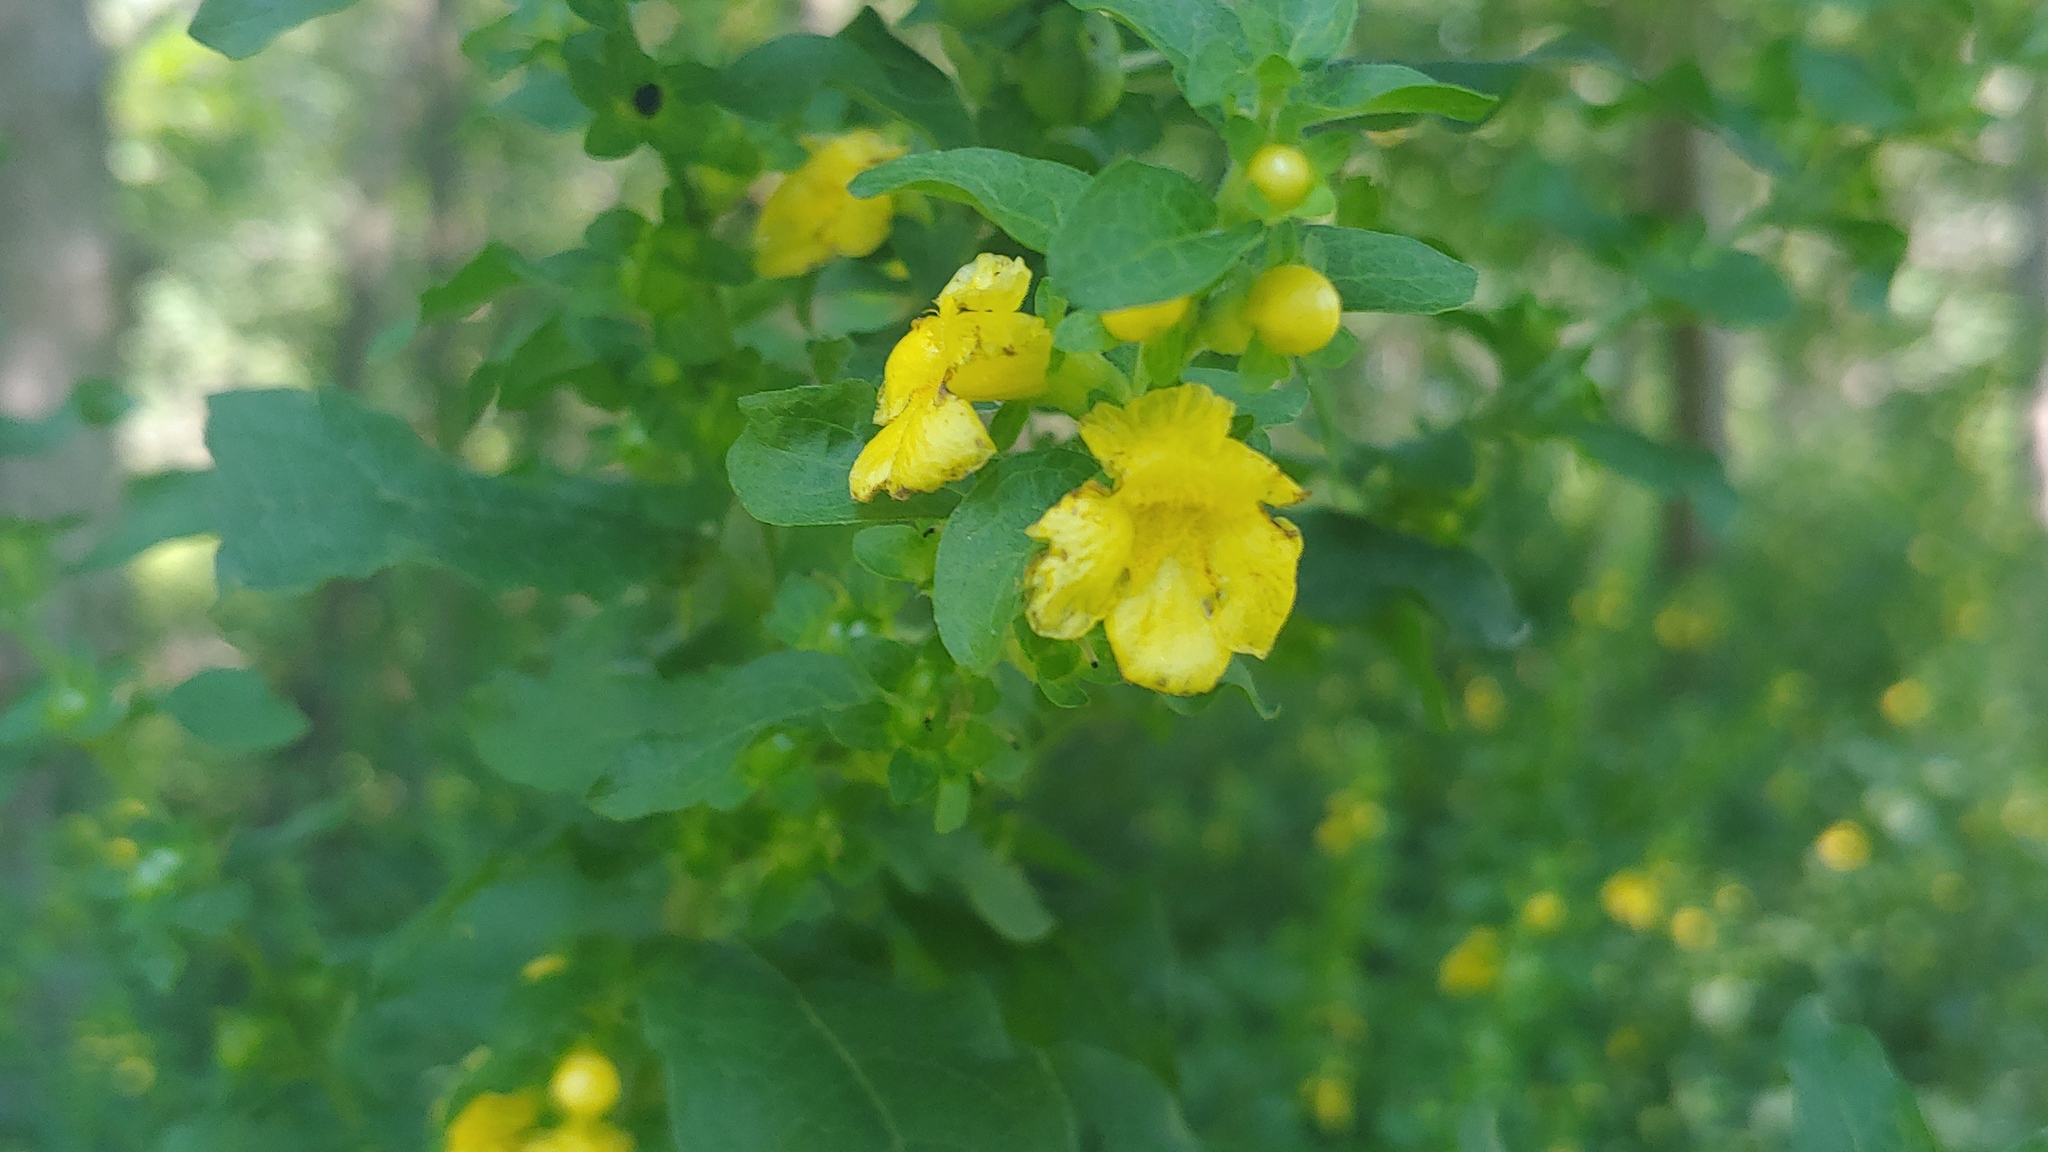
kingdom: Plantae
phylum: Tracheophyta
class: Magnoliopsida
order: Lamiales
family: Orobanchaceae
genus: Dasistoma
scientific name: Dasistoma macrophyllum
